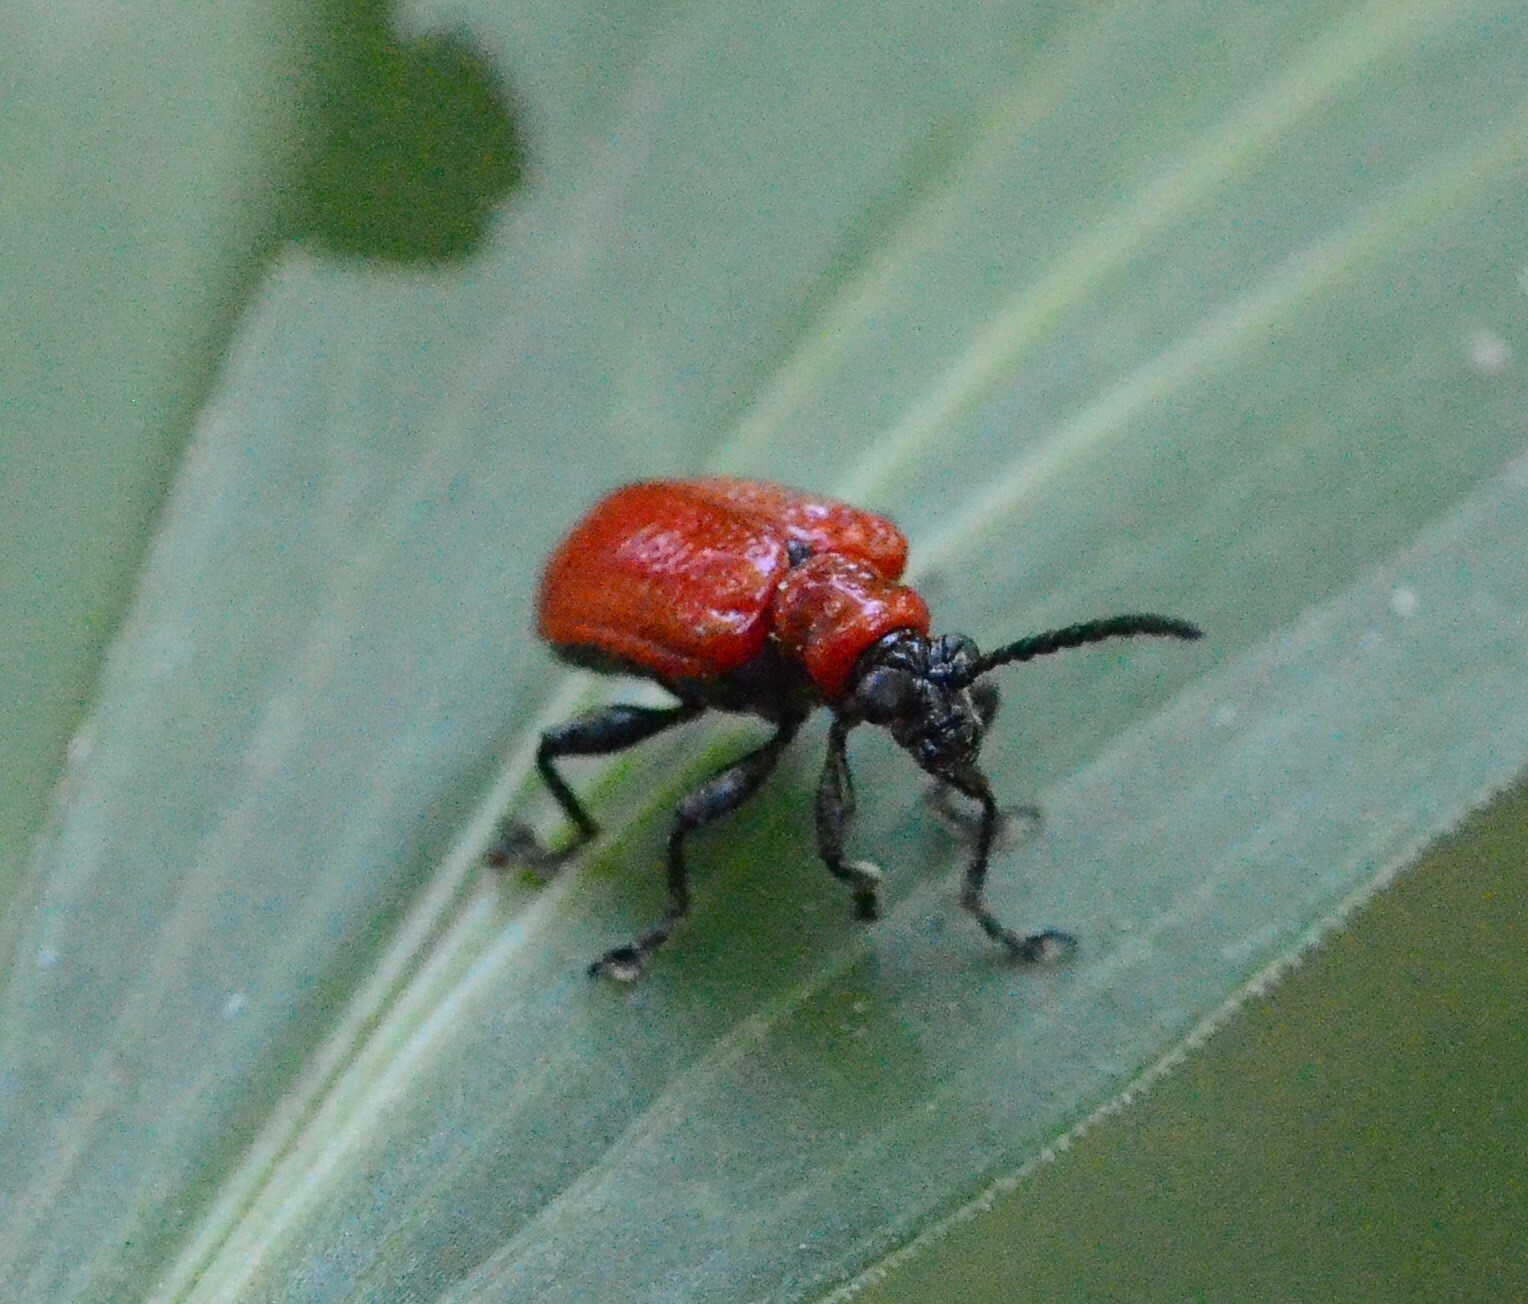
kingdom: Animalia
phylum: Arthropoda
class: Insecta
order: Coleoptera
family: Chrysomelidae
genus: Lilioceris
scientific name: Lilioceris lilii
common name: Lily beetle
